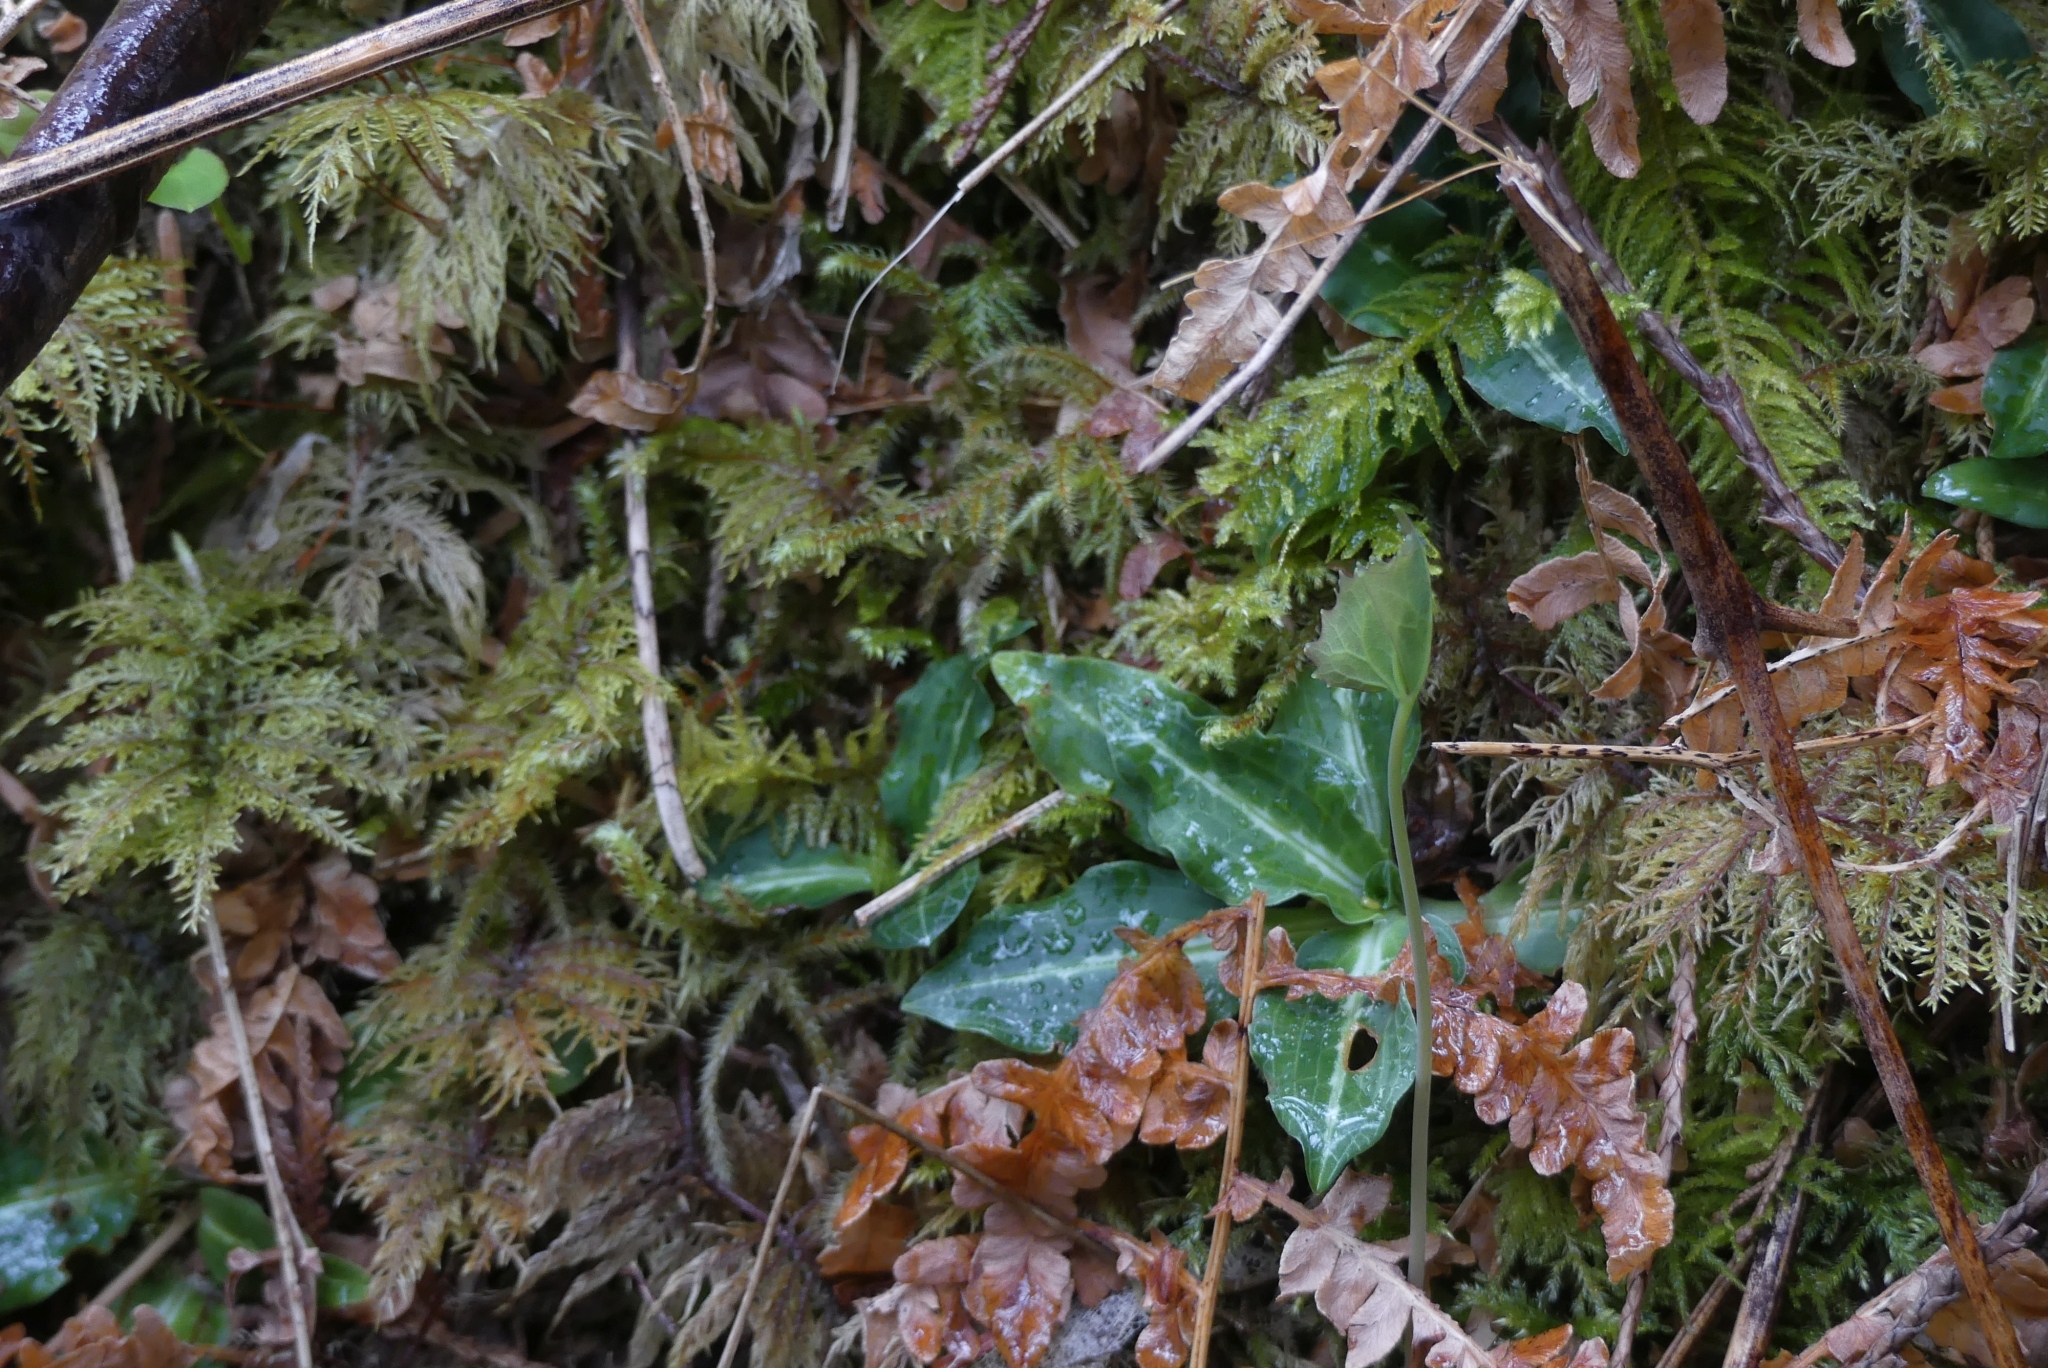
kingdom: Plantae
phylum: Tracheophyta
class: Liliopsida
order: Asparagales
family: Orchidaceae
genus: Goodyera
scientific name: Goodyera oblongifolia
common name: Giant rattlesnake-plantain
